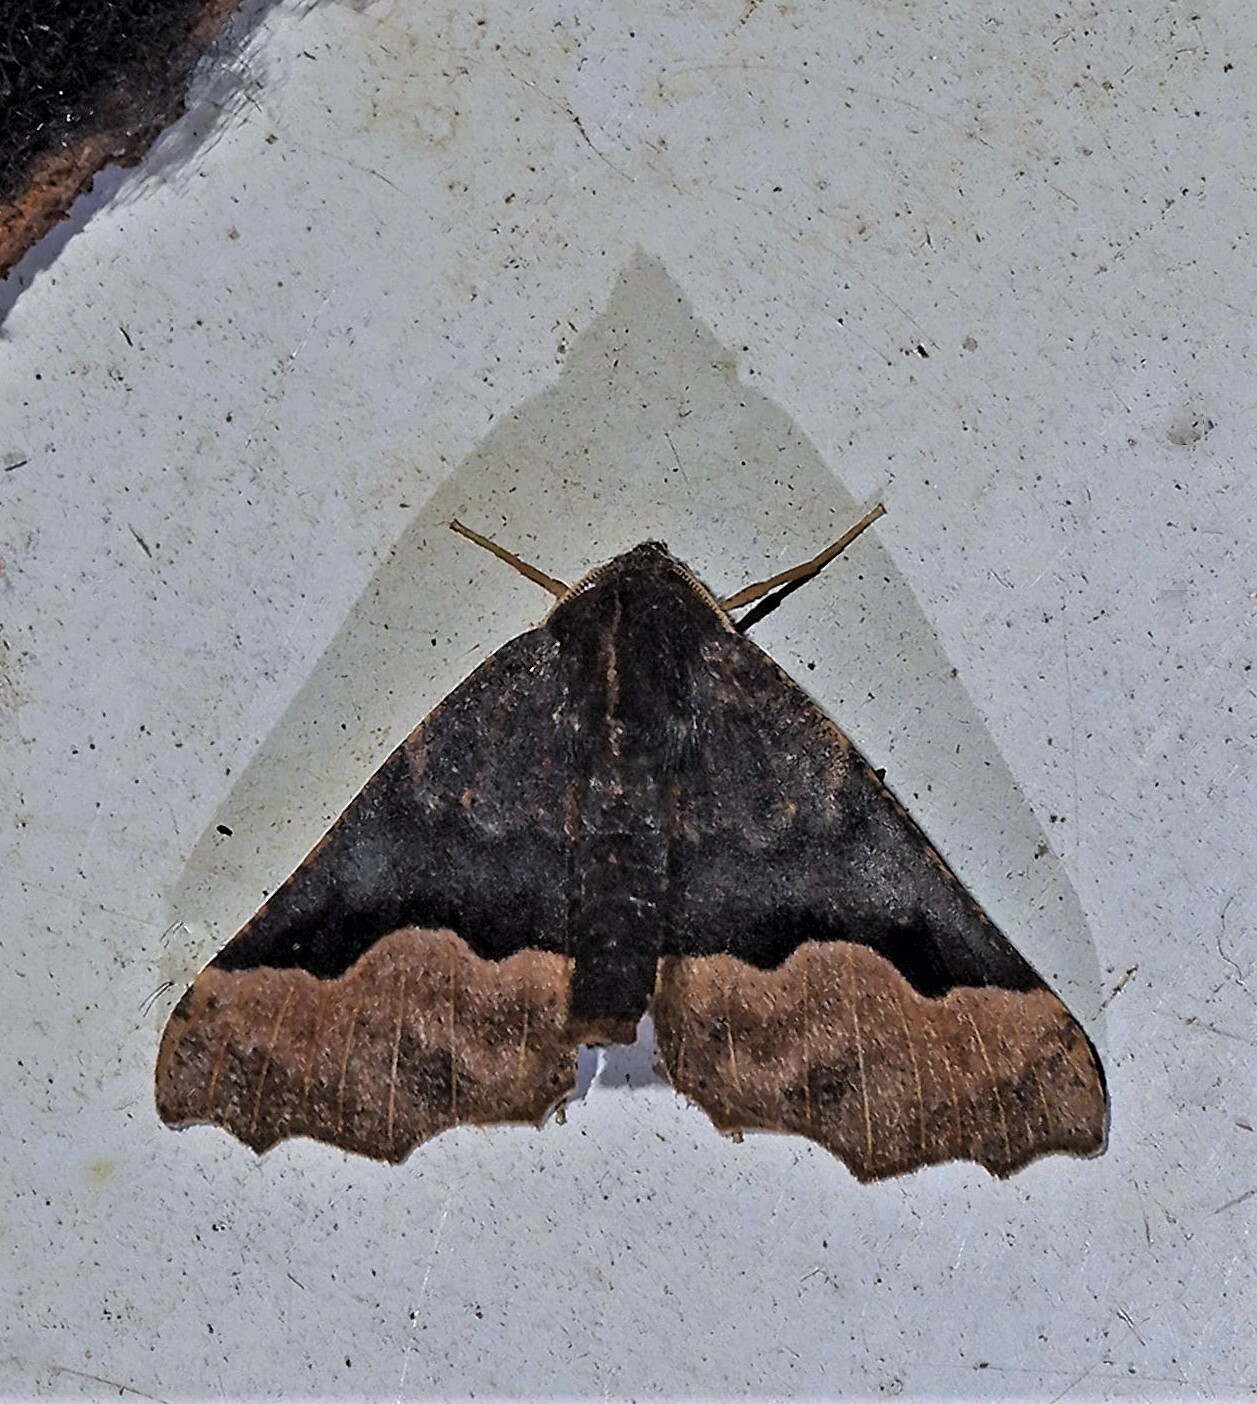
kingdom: Animalia
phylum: Arthropoda
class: Insecta
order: Lepidoptera
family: Geometridae
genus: Pero
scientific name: Pero lignata
